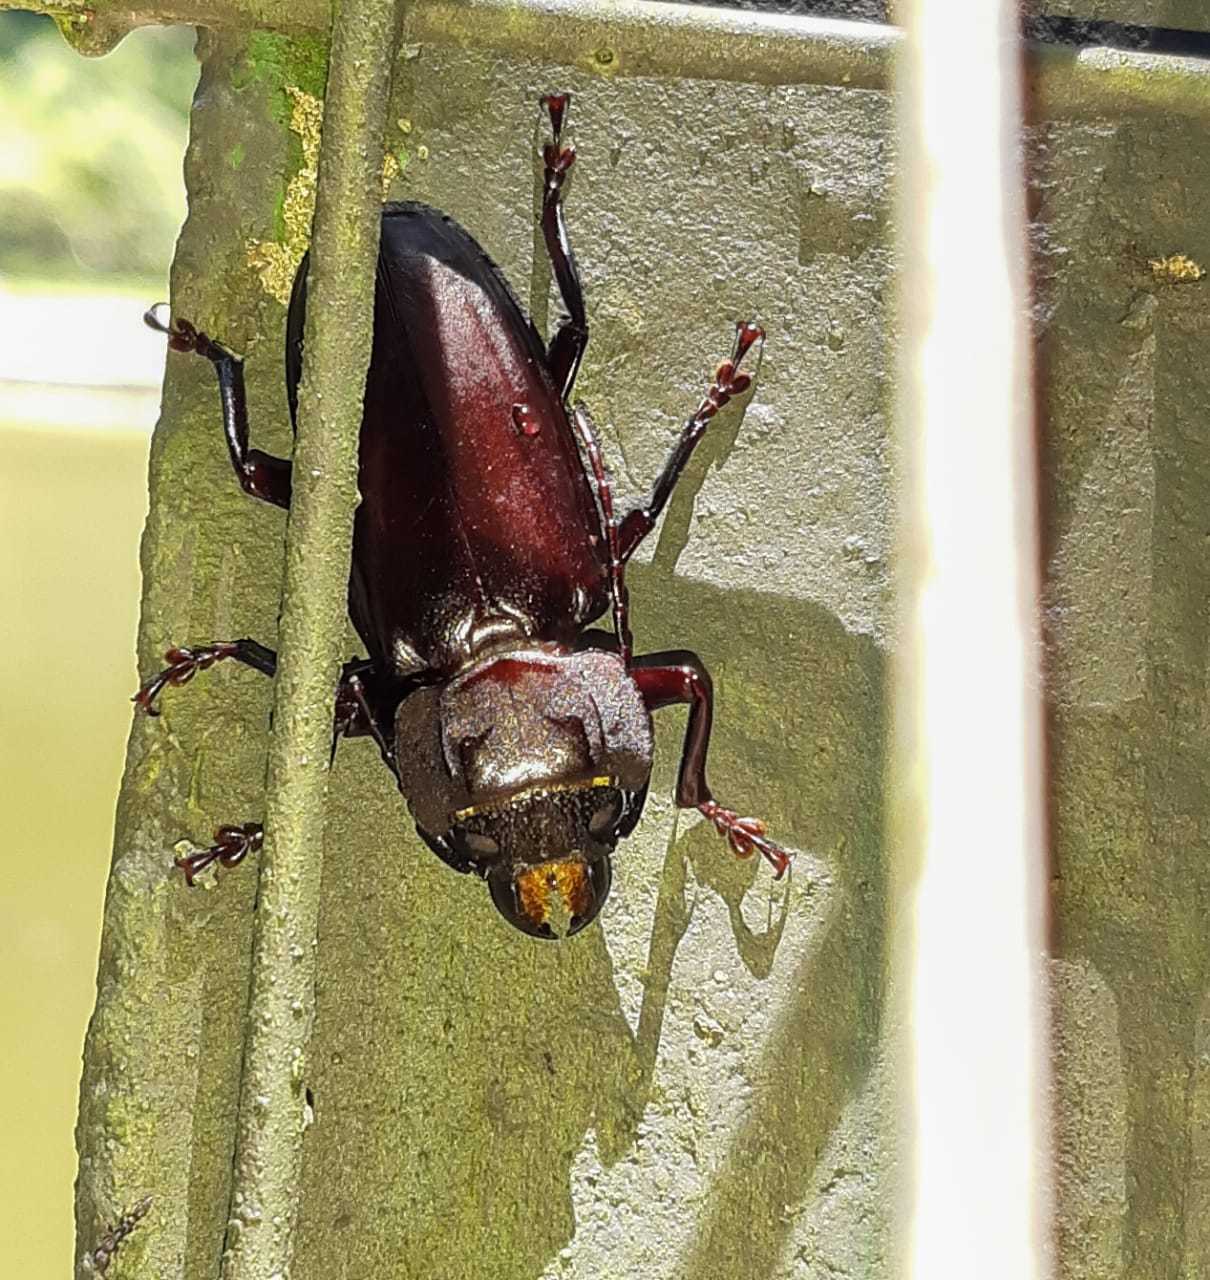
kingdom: Animalia
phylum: Arthropoda
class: Insecta
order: Coleoptera
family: Cerambycidae
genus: Mallodon
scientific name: Mallodon dasystomum
